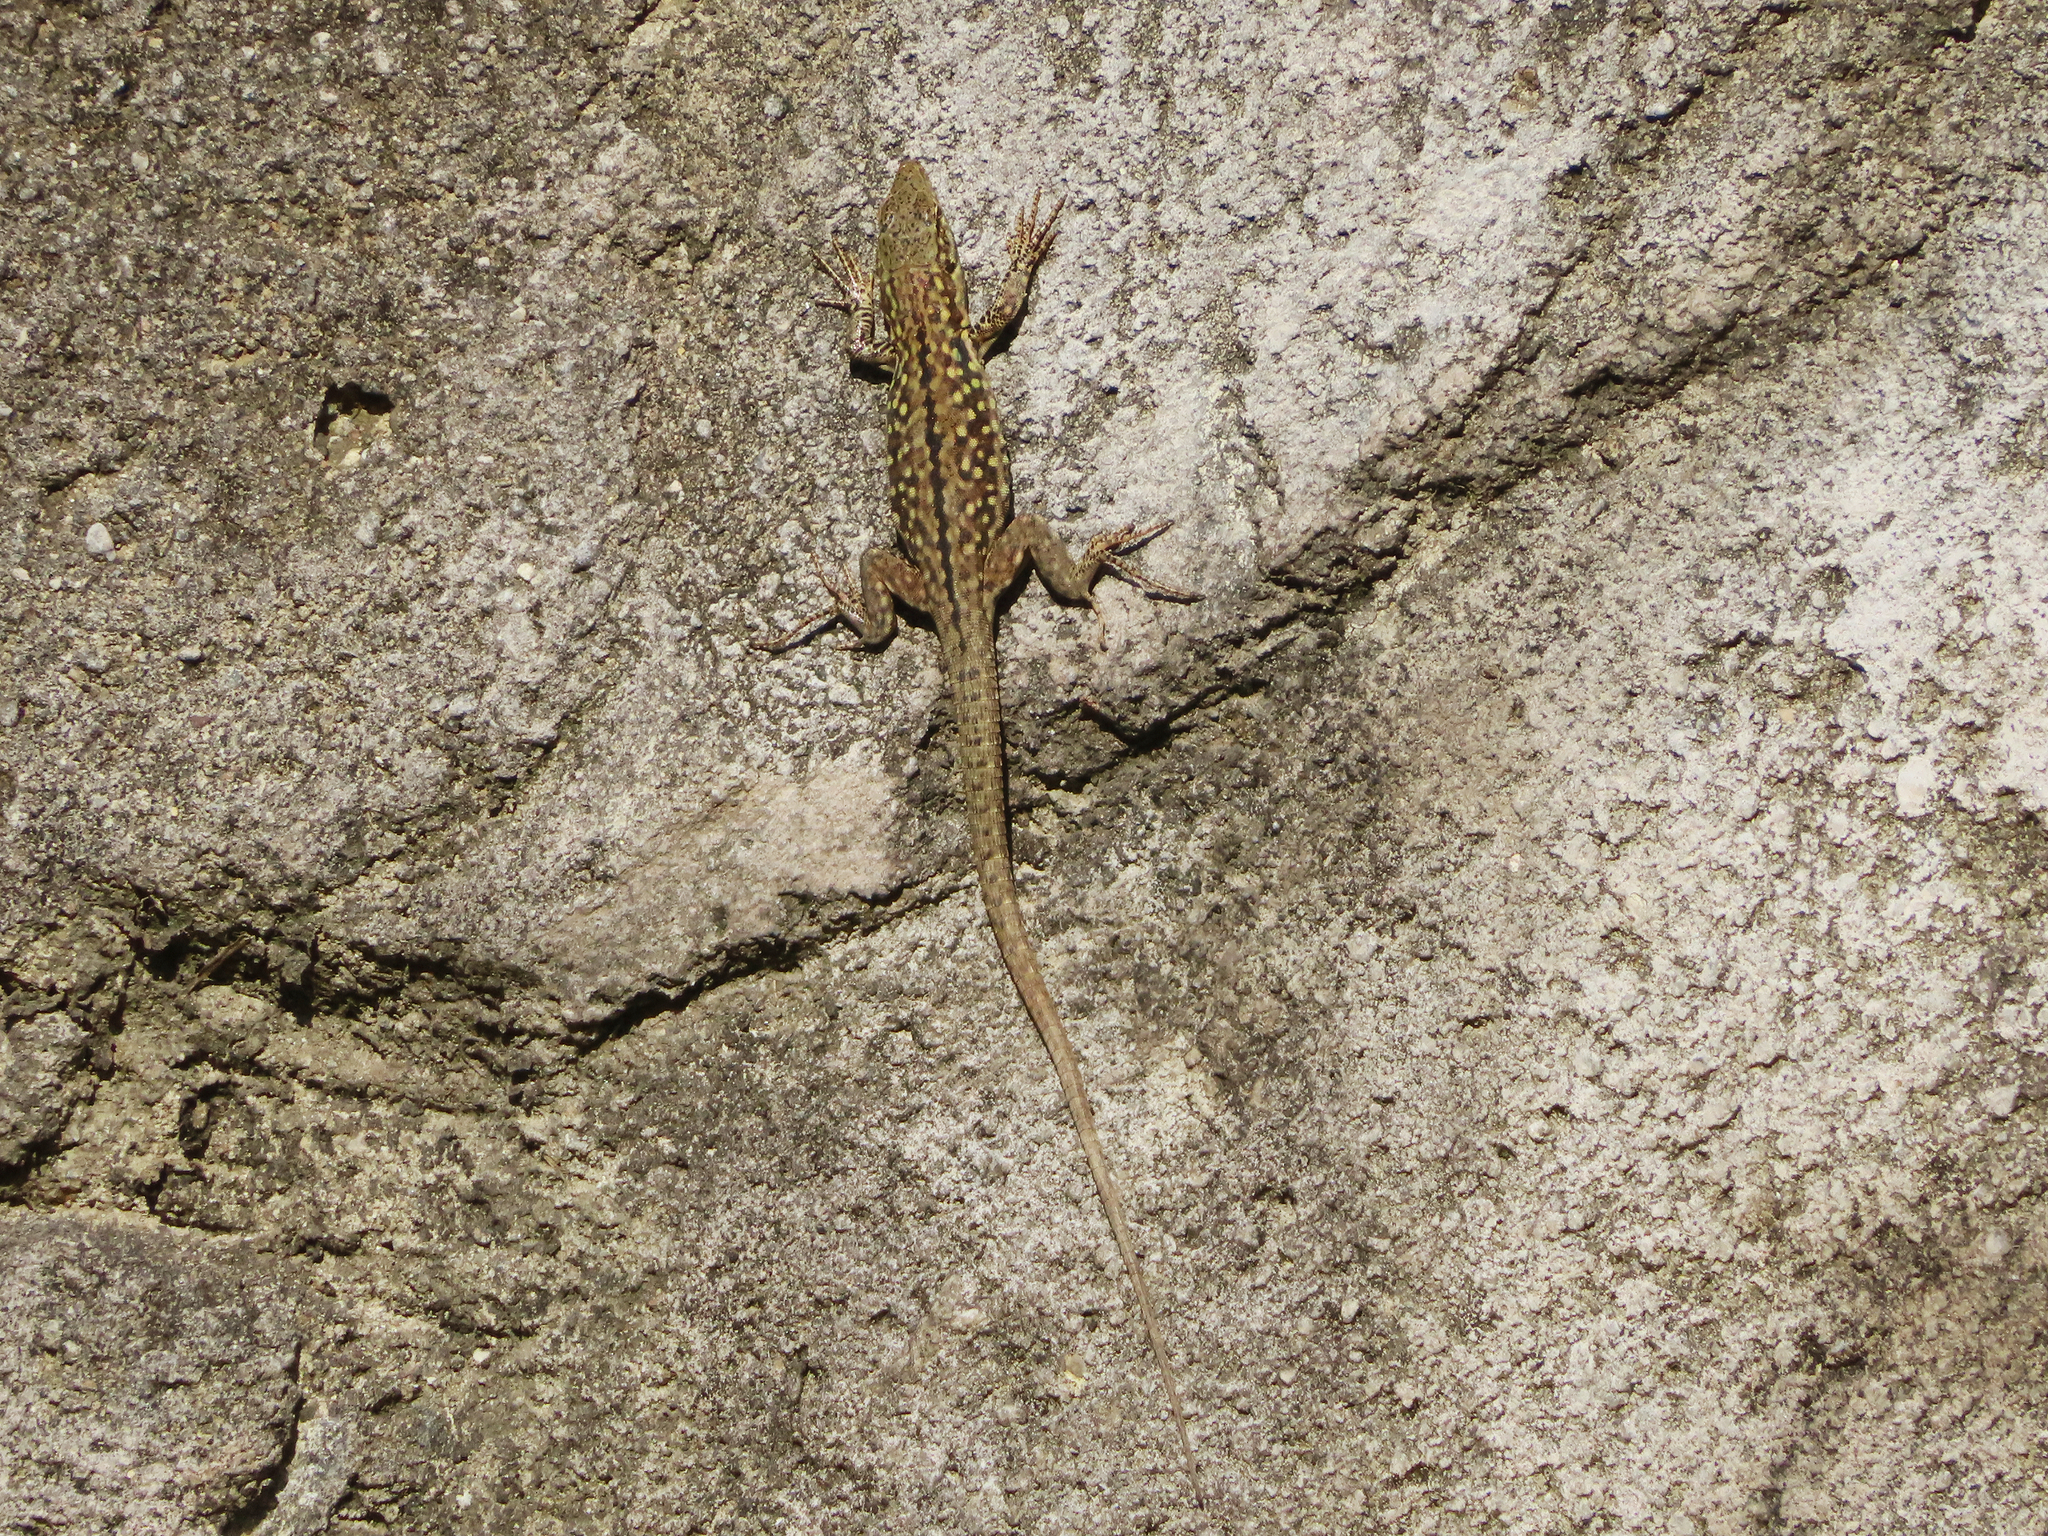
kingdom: Animalia
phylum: Chordata
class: Squamata
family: Lacertidae
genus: Podarcis
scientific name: Podarcis siculus
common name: Italian wall lizard
